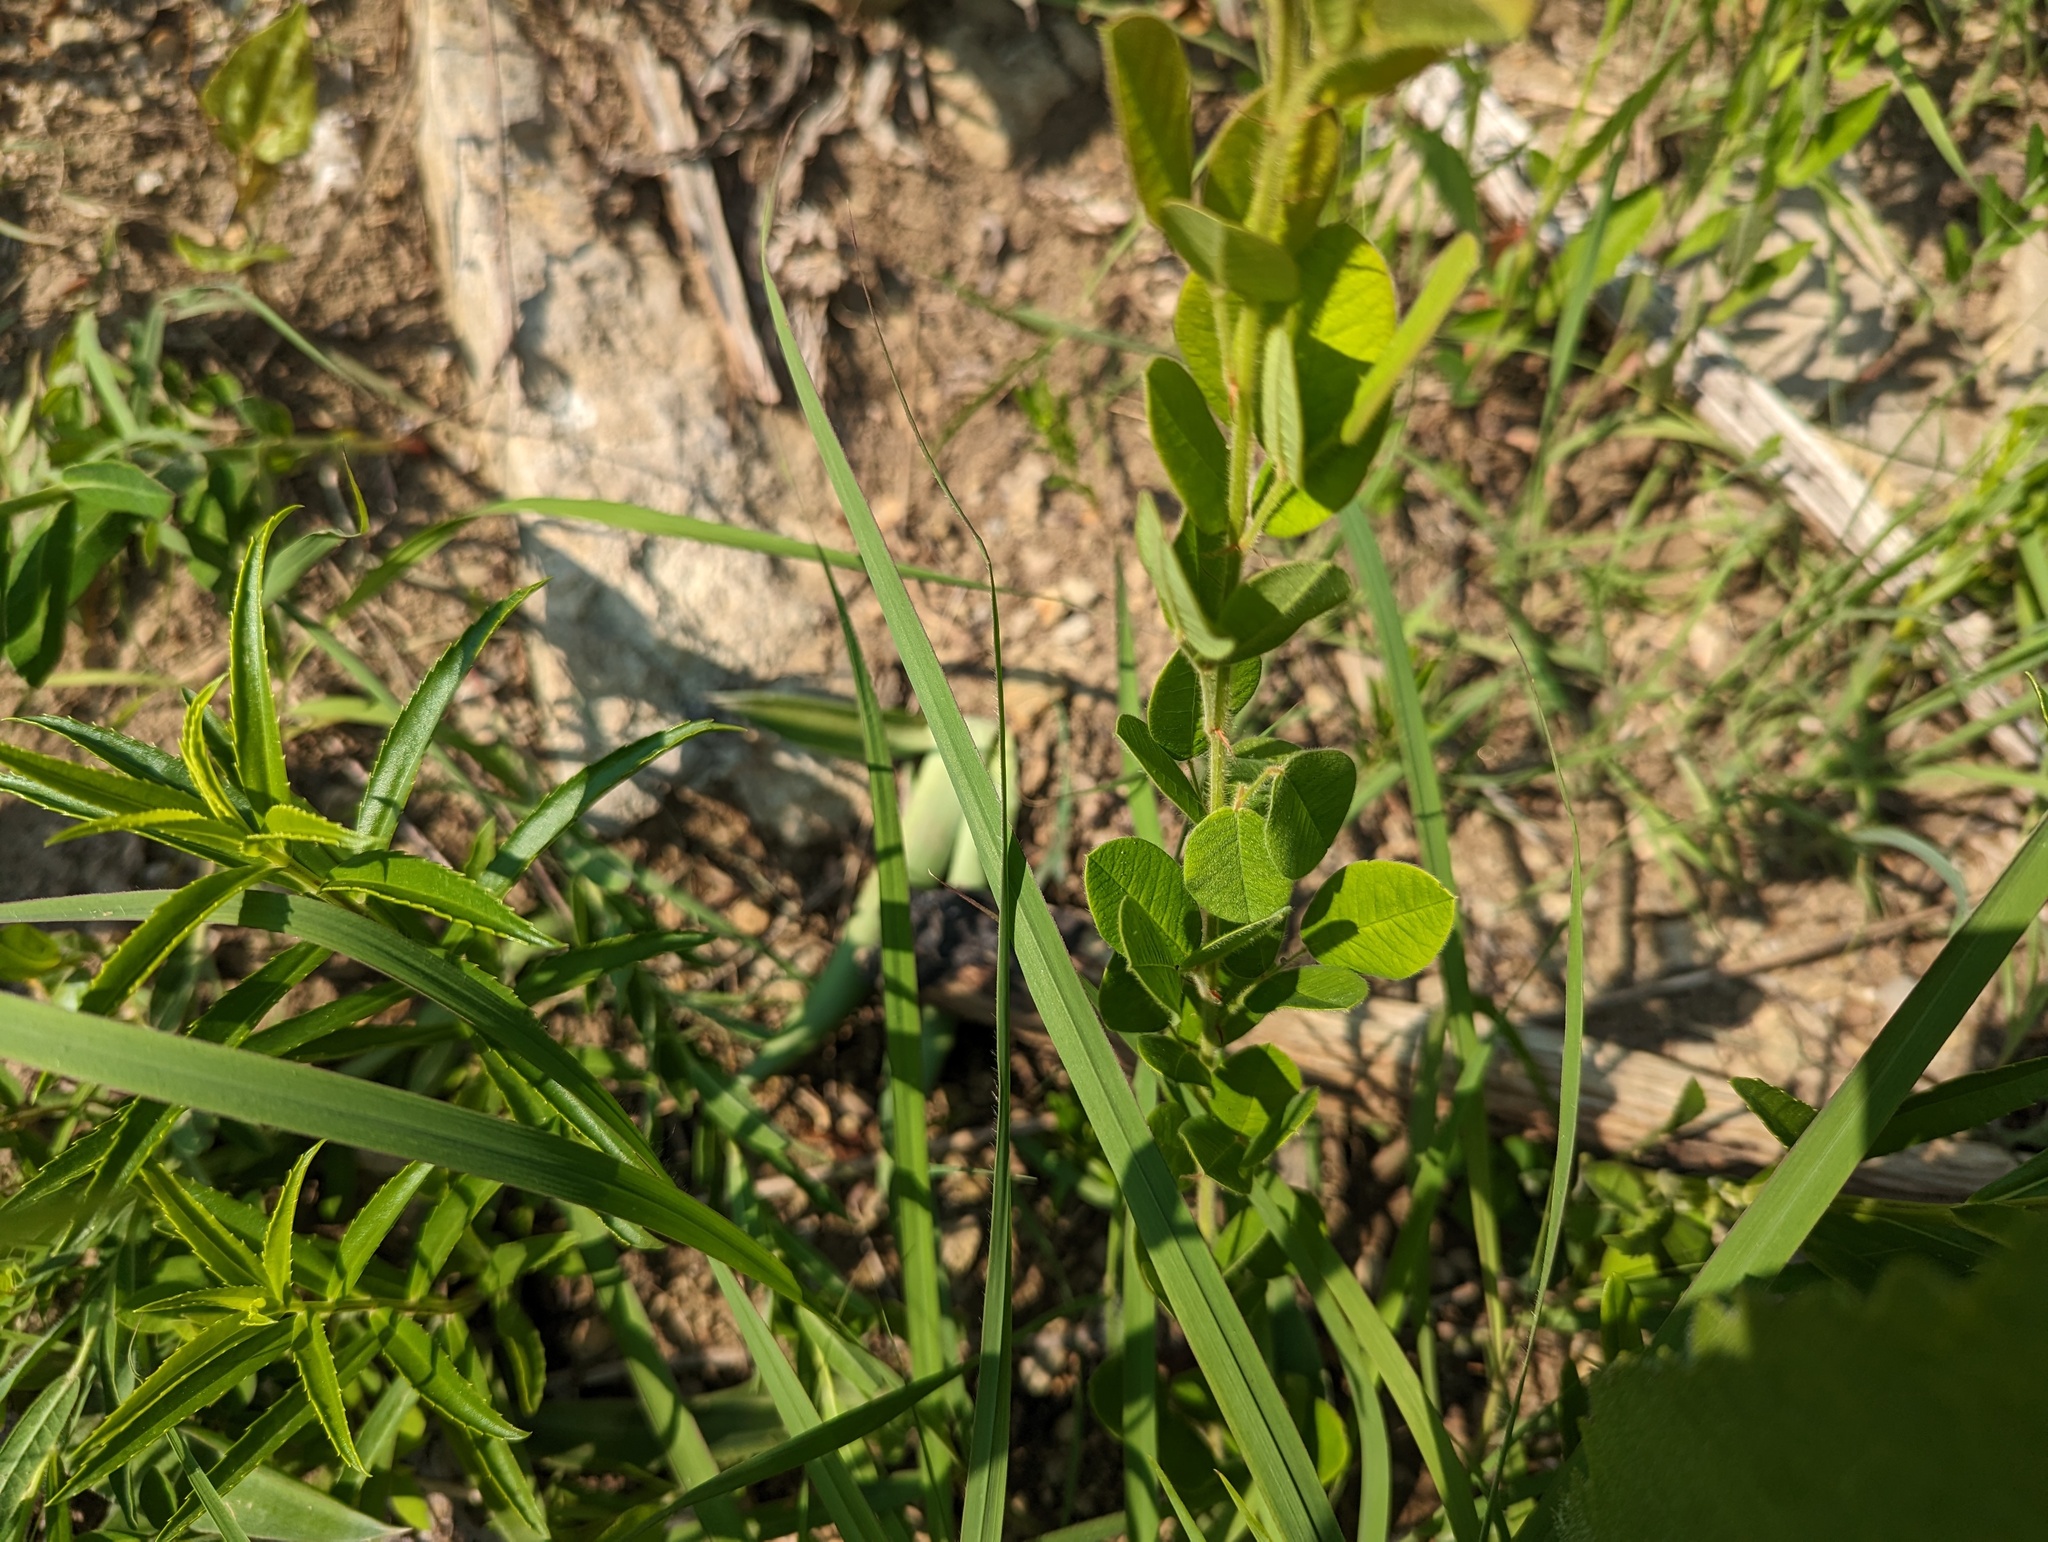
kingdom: Plantae
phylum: Tracheophyta
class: Magnoliopsida
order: Fabales
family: Fabaceae
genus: Lespedeza
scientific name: Lespedeza hirta
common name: Hairy lespedeza
